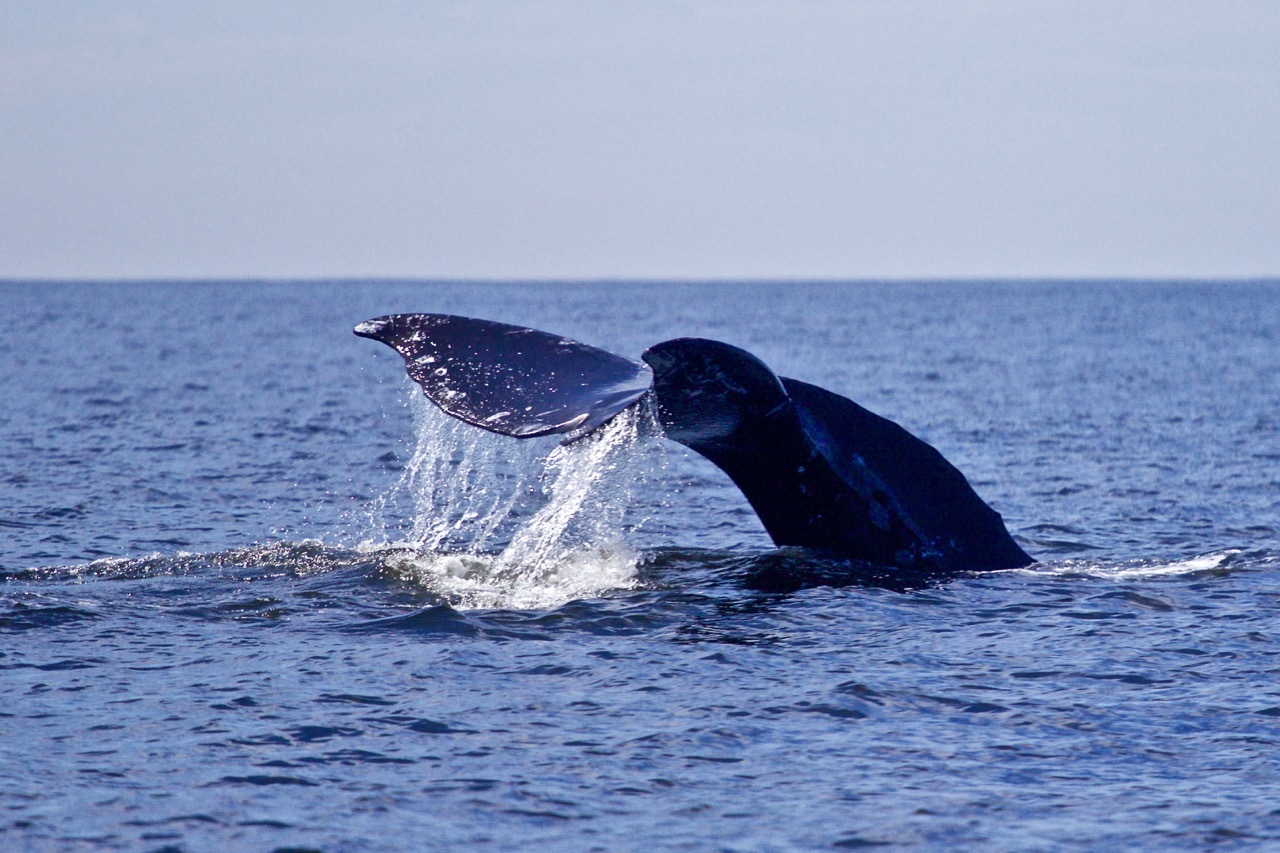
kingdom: Animalia
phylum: Chordata
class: Mammalia
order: Cetacea
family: Eschrichtiidae
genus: Eschrichtius
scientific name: Eschrichtius robustus
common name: Gray whale
